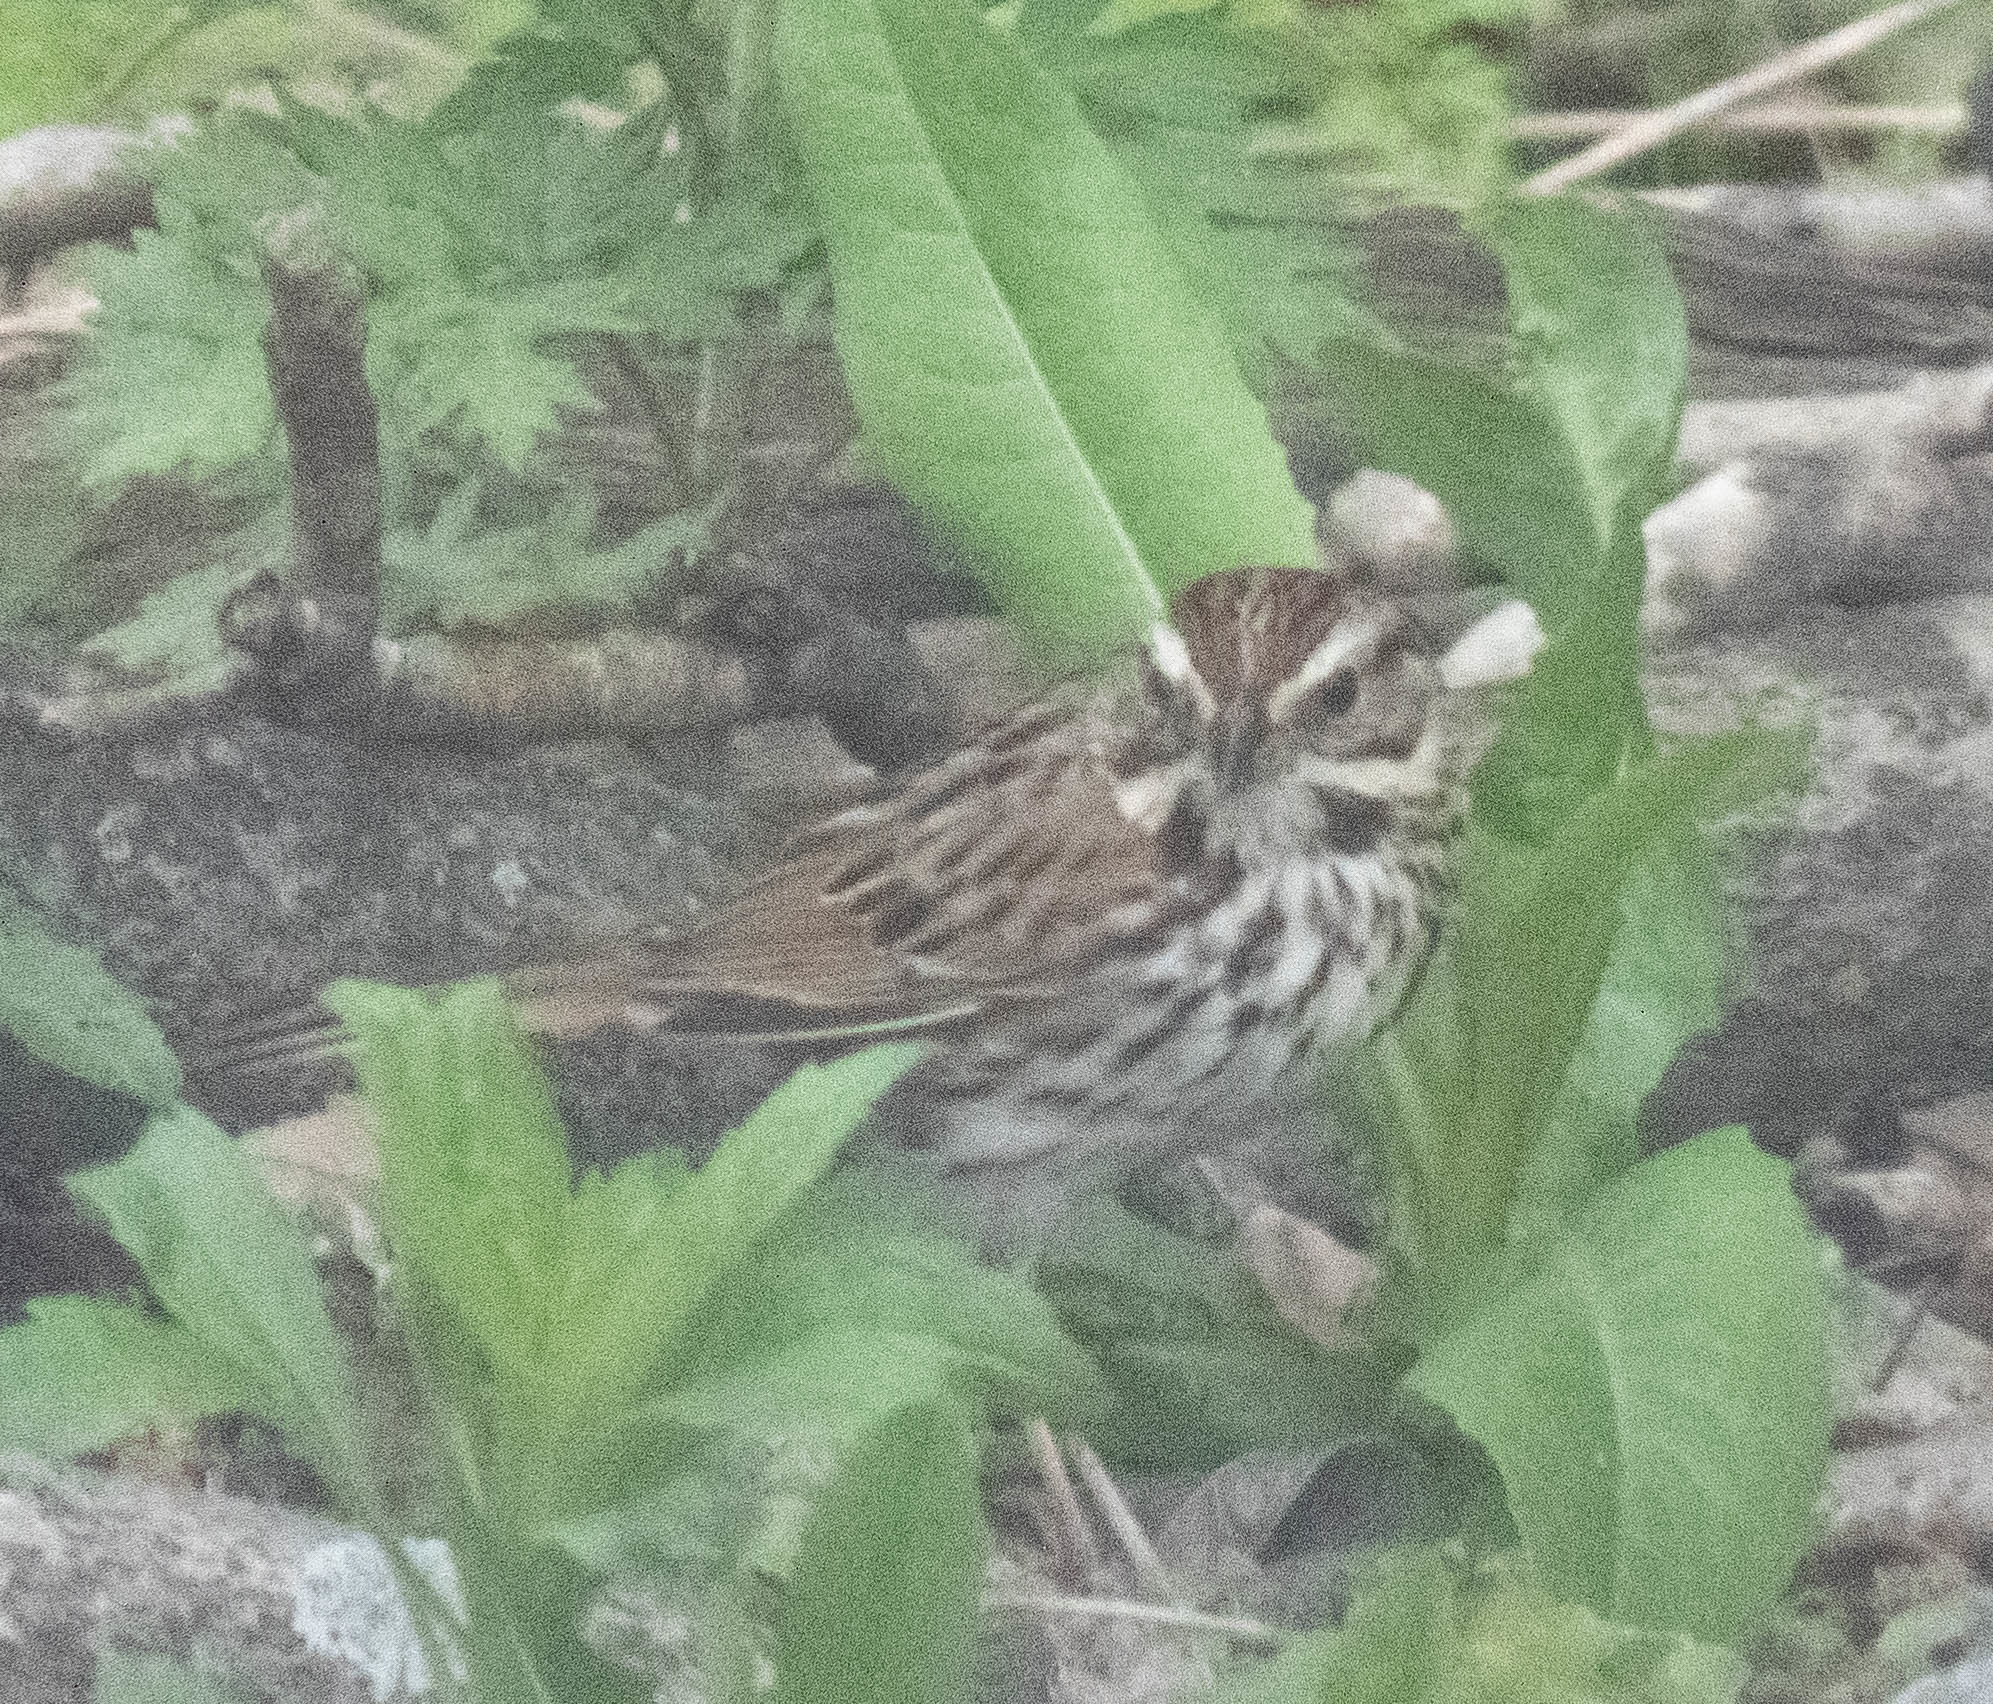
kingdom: Animalia
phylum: Chordata
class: Aves
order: Passeriformes
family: Passerellidae
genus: Melospiza
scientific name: Melospiza melodia
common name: Song sparrow
